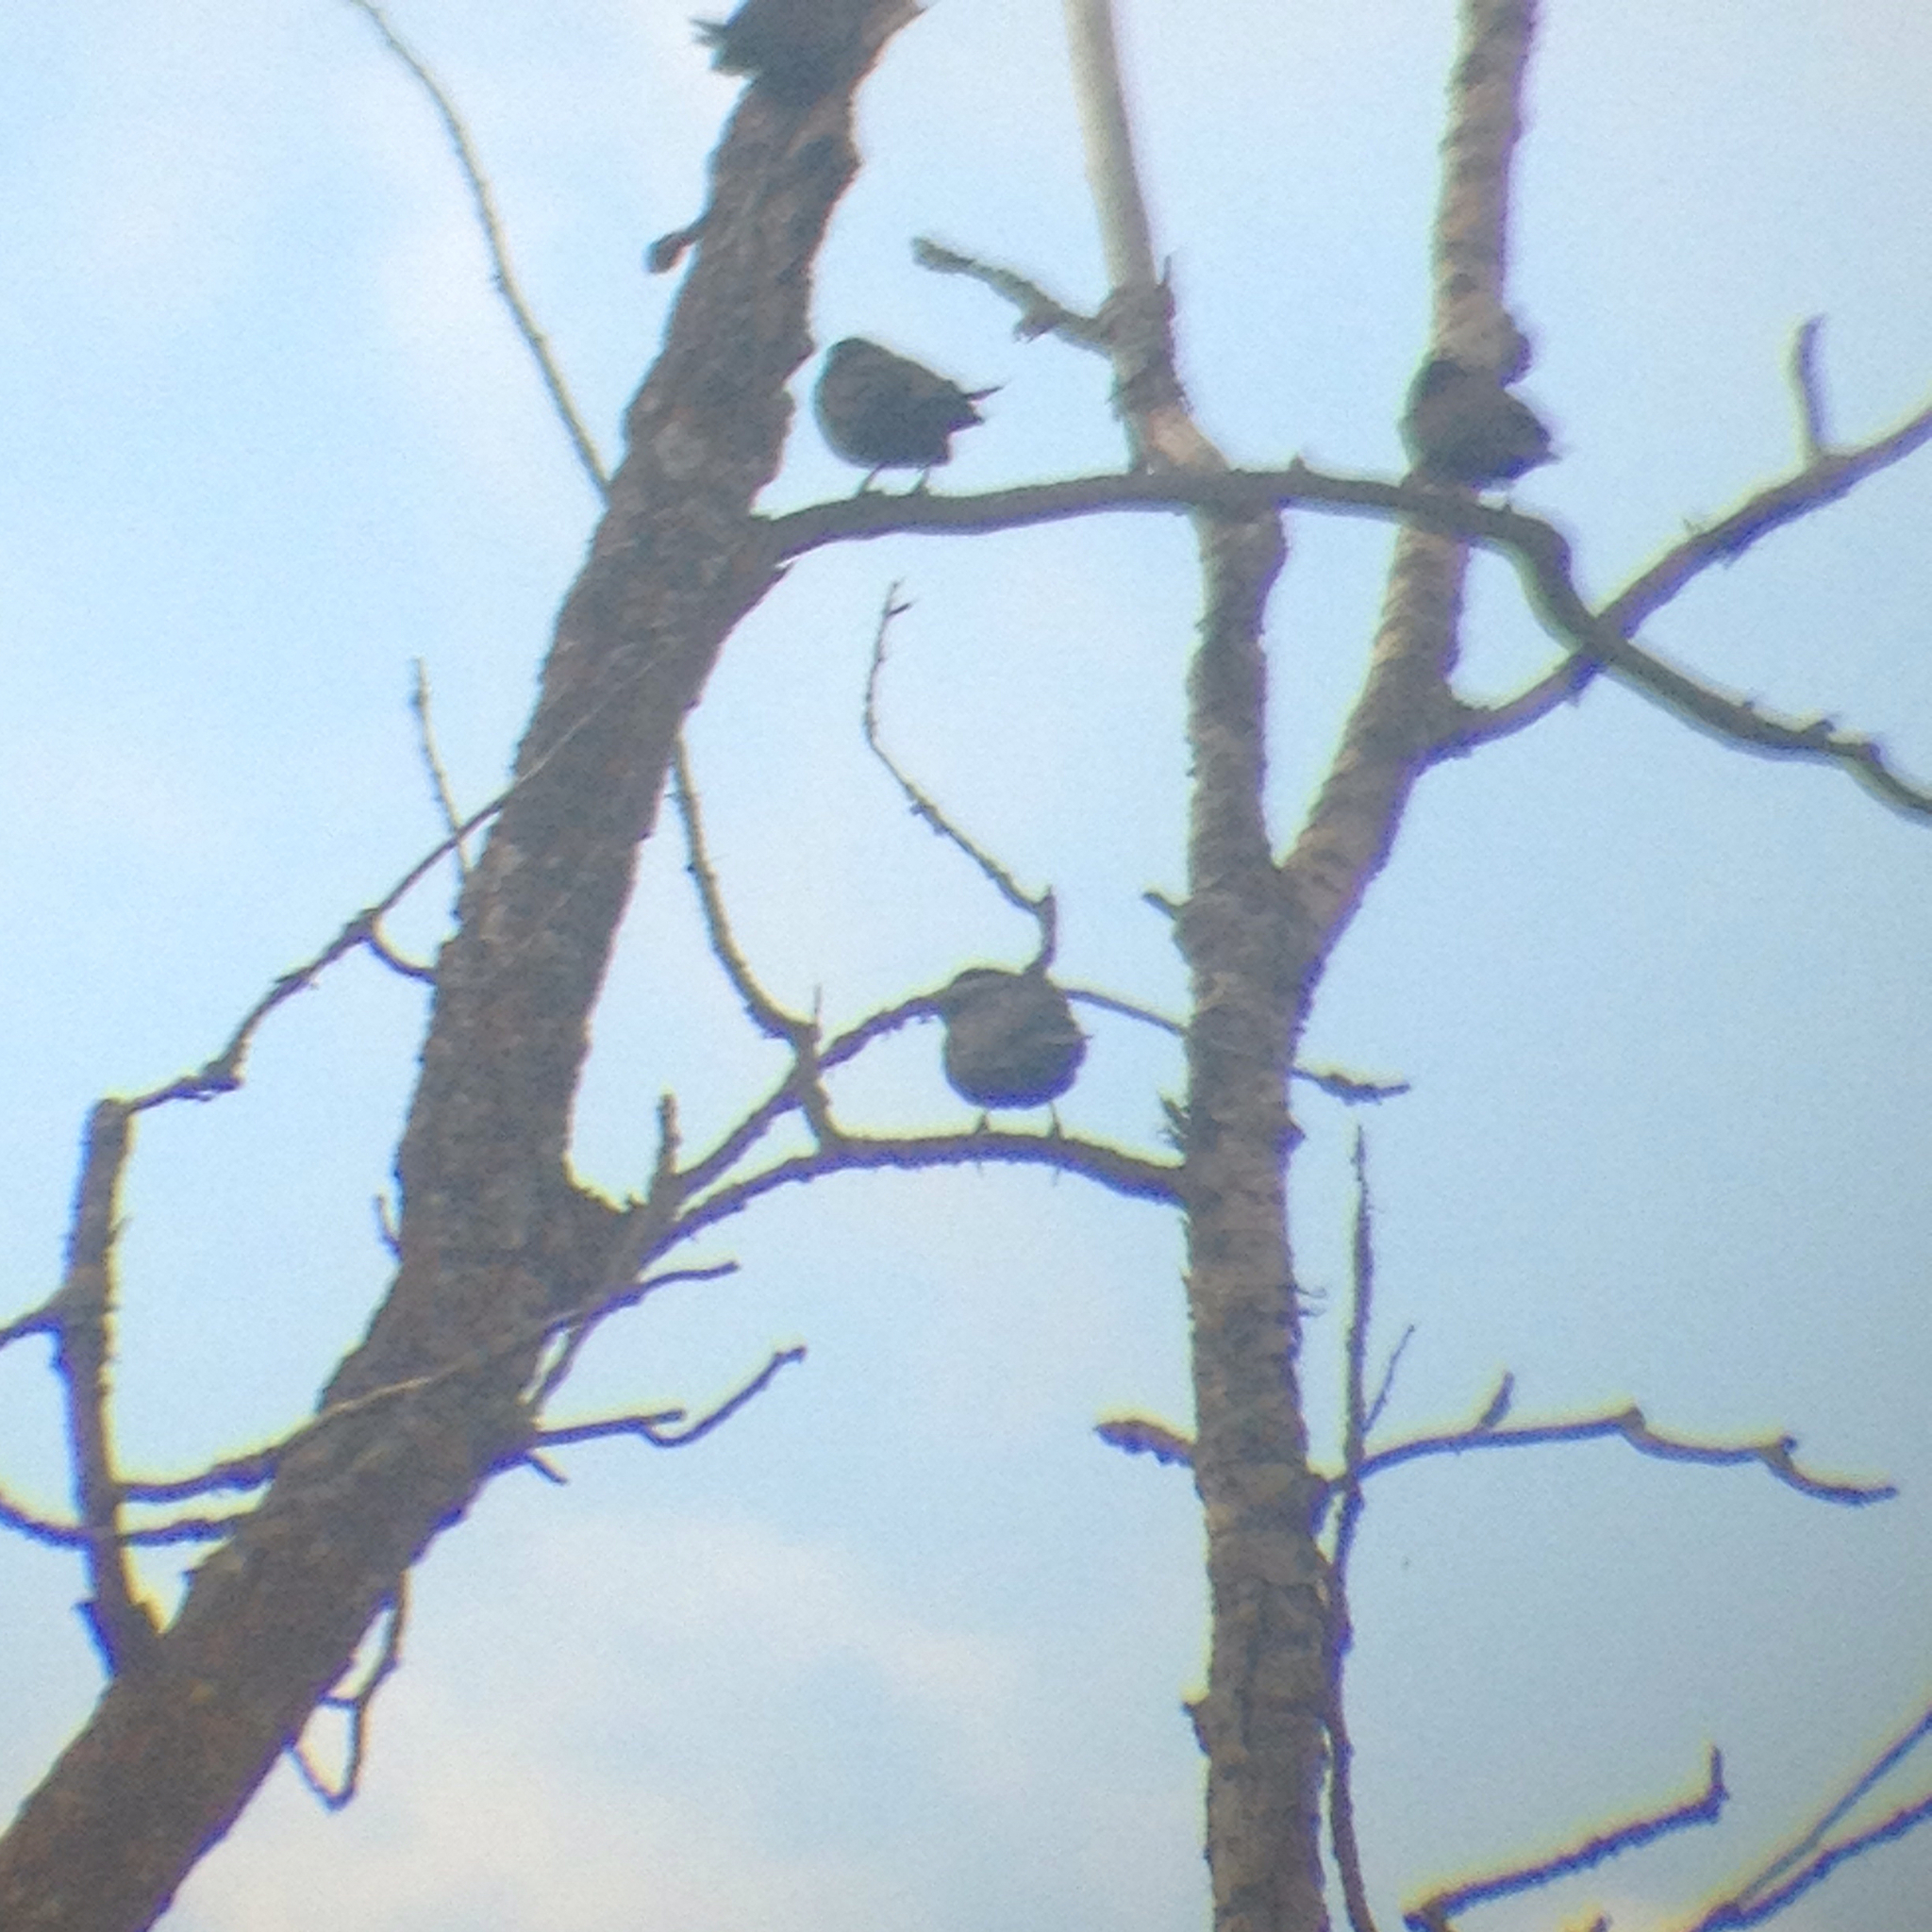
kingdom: Animalia
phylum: Chordata
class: Aves
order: Passeriformes
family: Icteridae
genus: Quiscalus
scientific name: Quiscalus quiscula
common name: Common grackle
